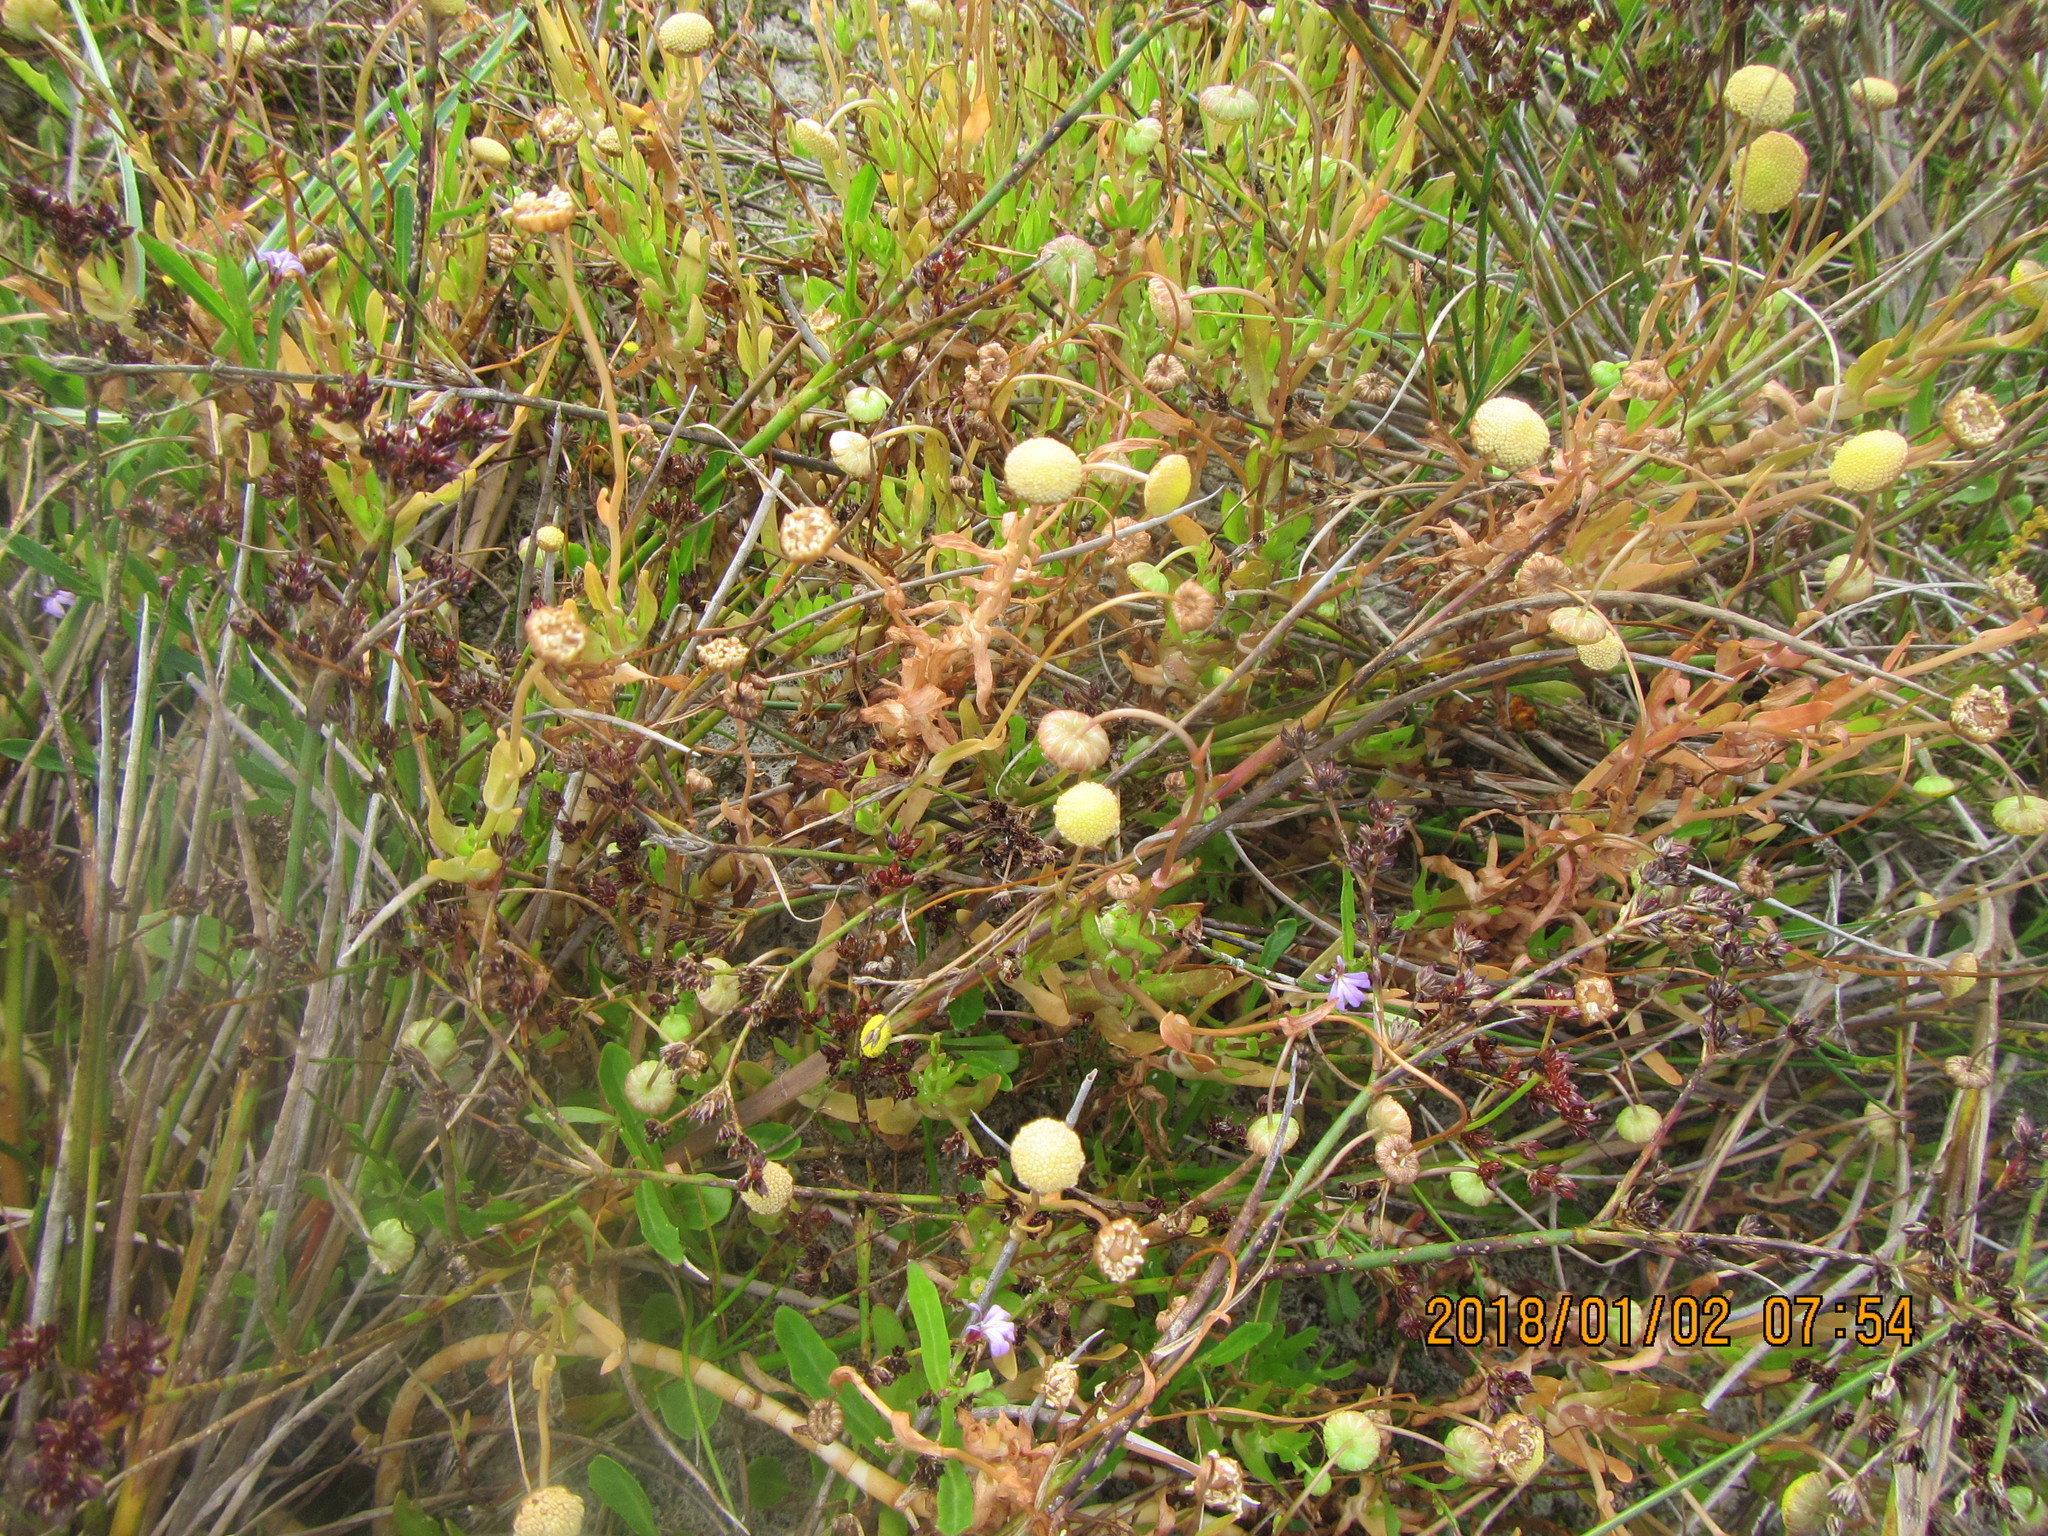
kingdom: Plantae
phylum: Tracheophyta
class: Magnoliopsida
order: Asterales
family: Campanulaceae
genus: Lobelia
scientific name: Lobelia anceps
